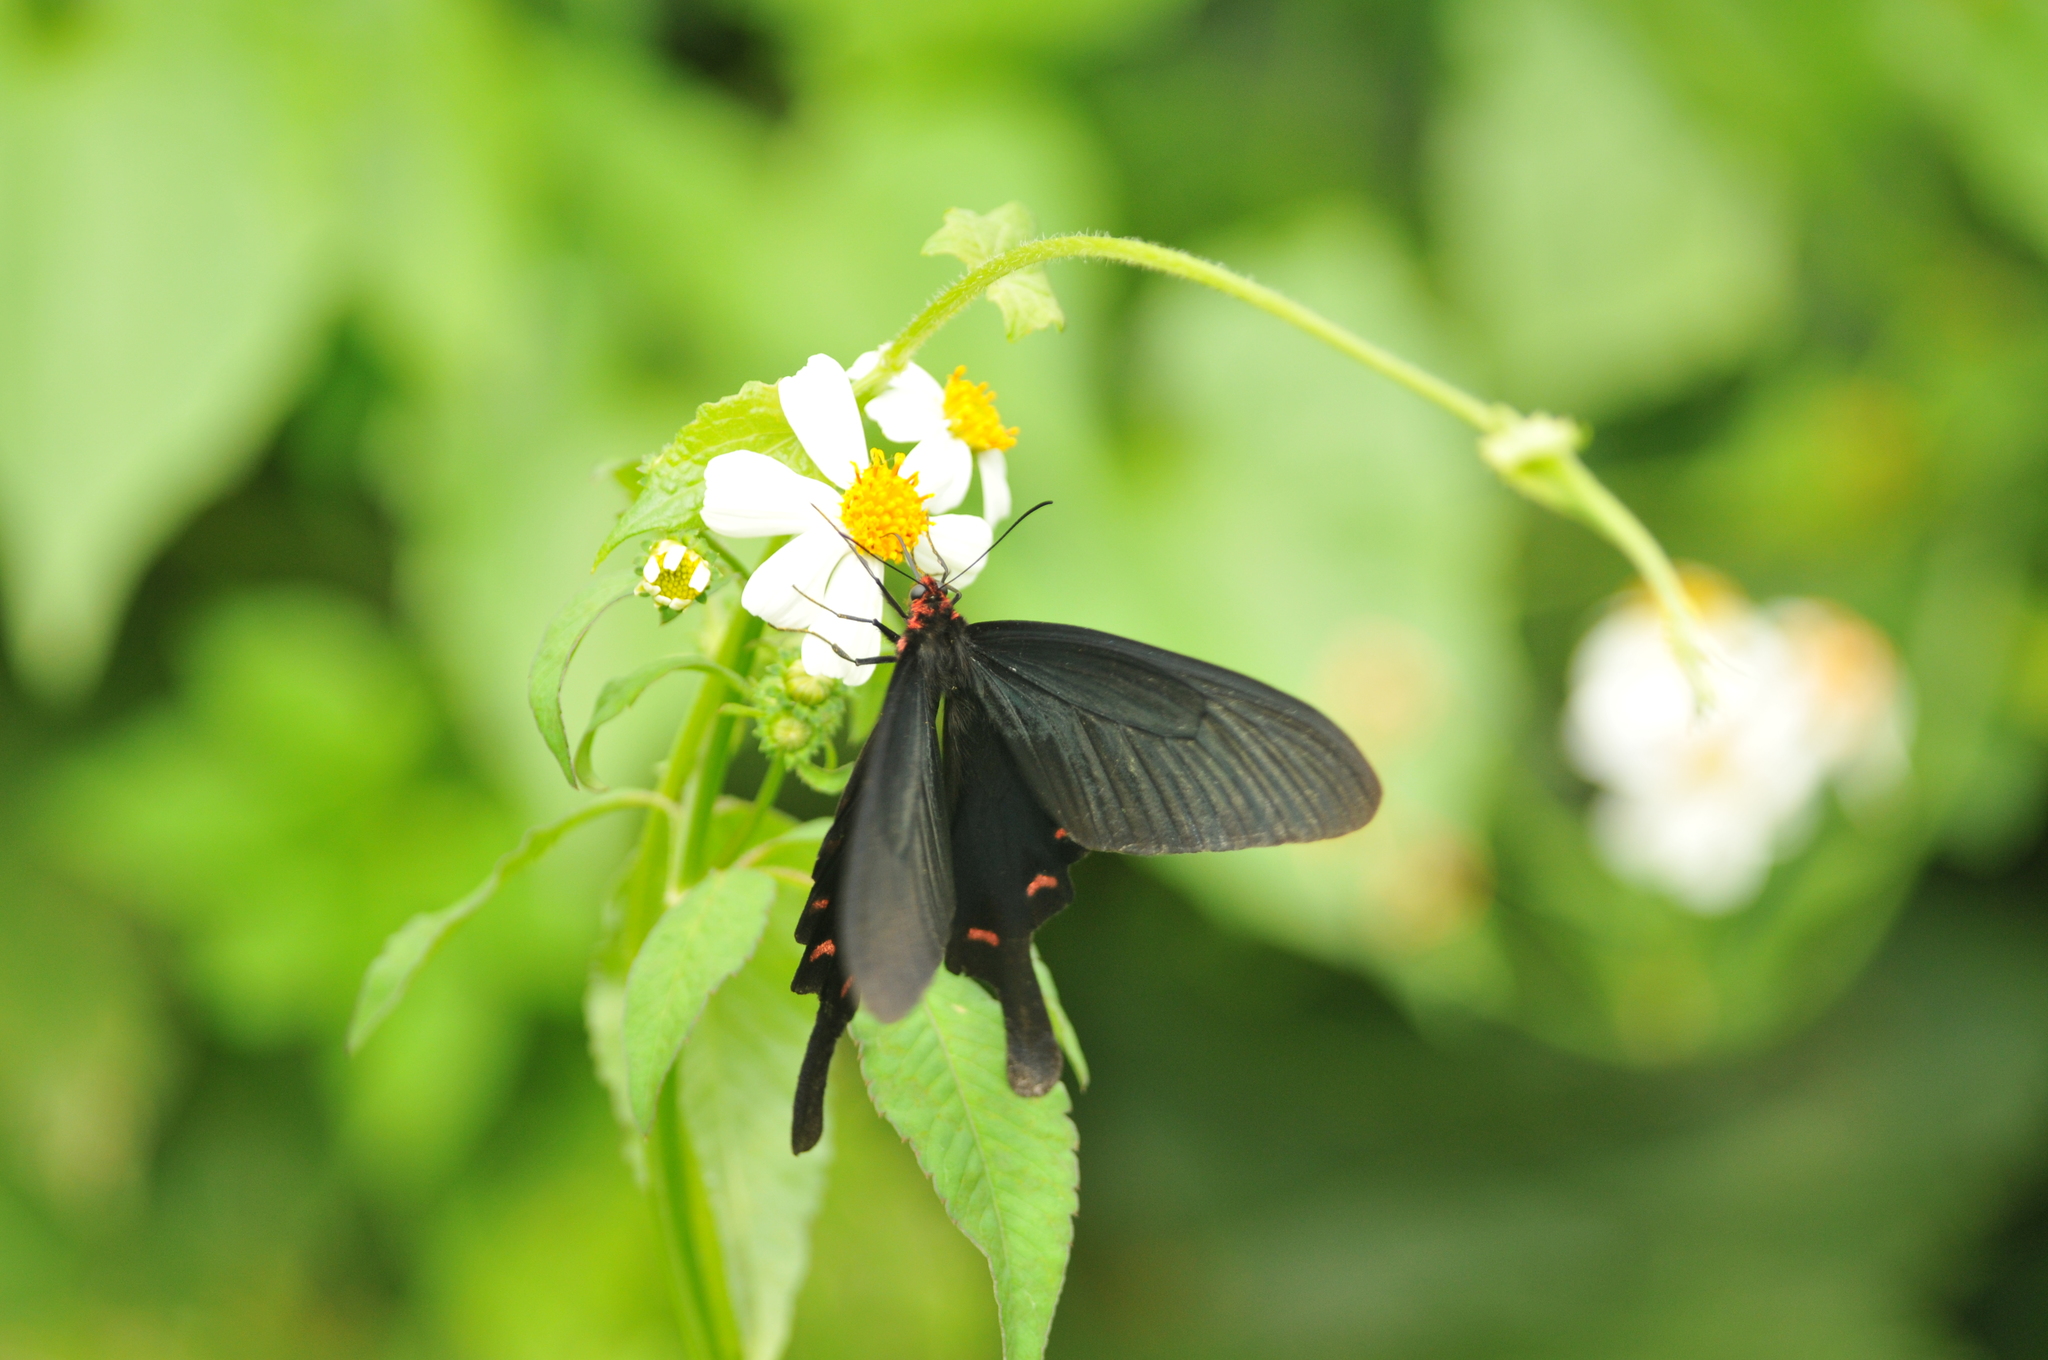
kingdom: Animalia
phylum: Arthropoda
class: Insecta
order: Lepidoptera
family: Papilionidae
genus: Byasa
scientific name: Byasa confusus
